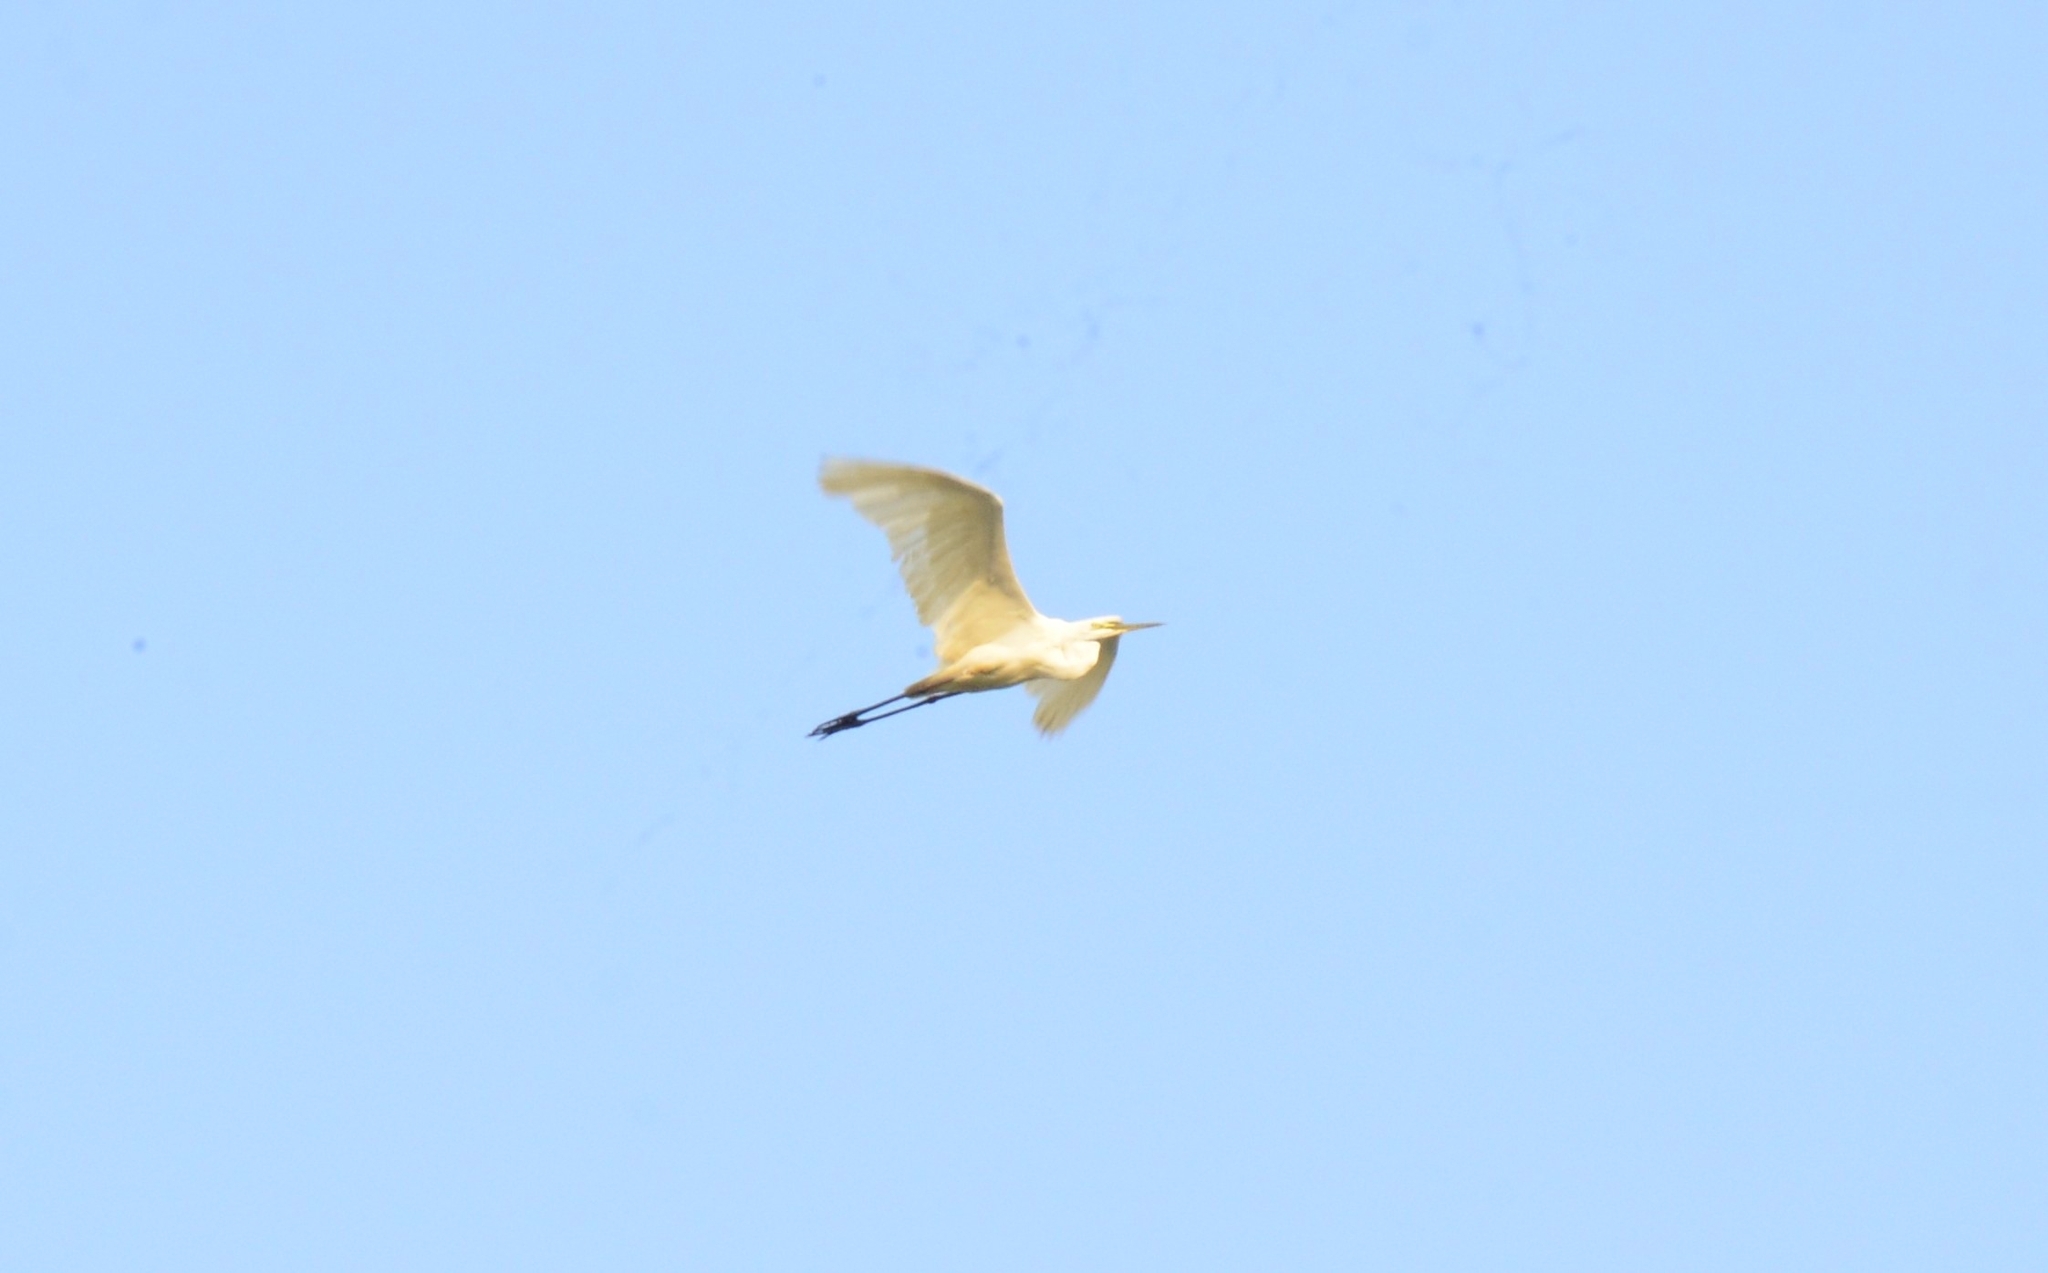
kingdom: Animalia
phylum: Chordata
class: Aves
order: Pelecaniformes
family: Ardeidae
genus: Ardea
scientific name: Ardea alba
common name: Great egret
